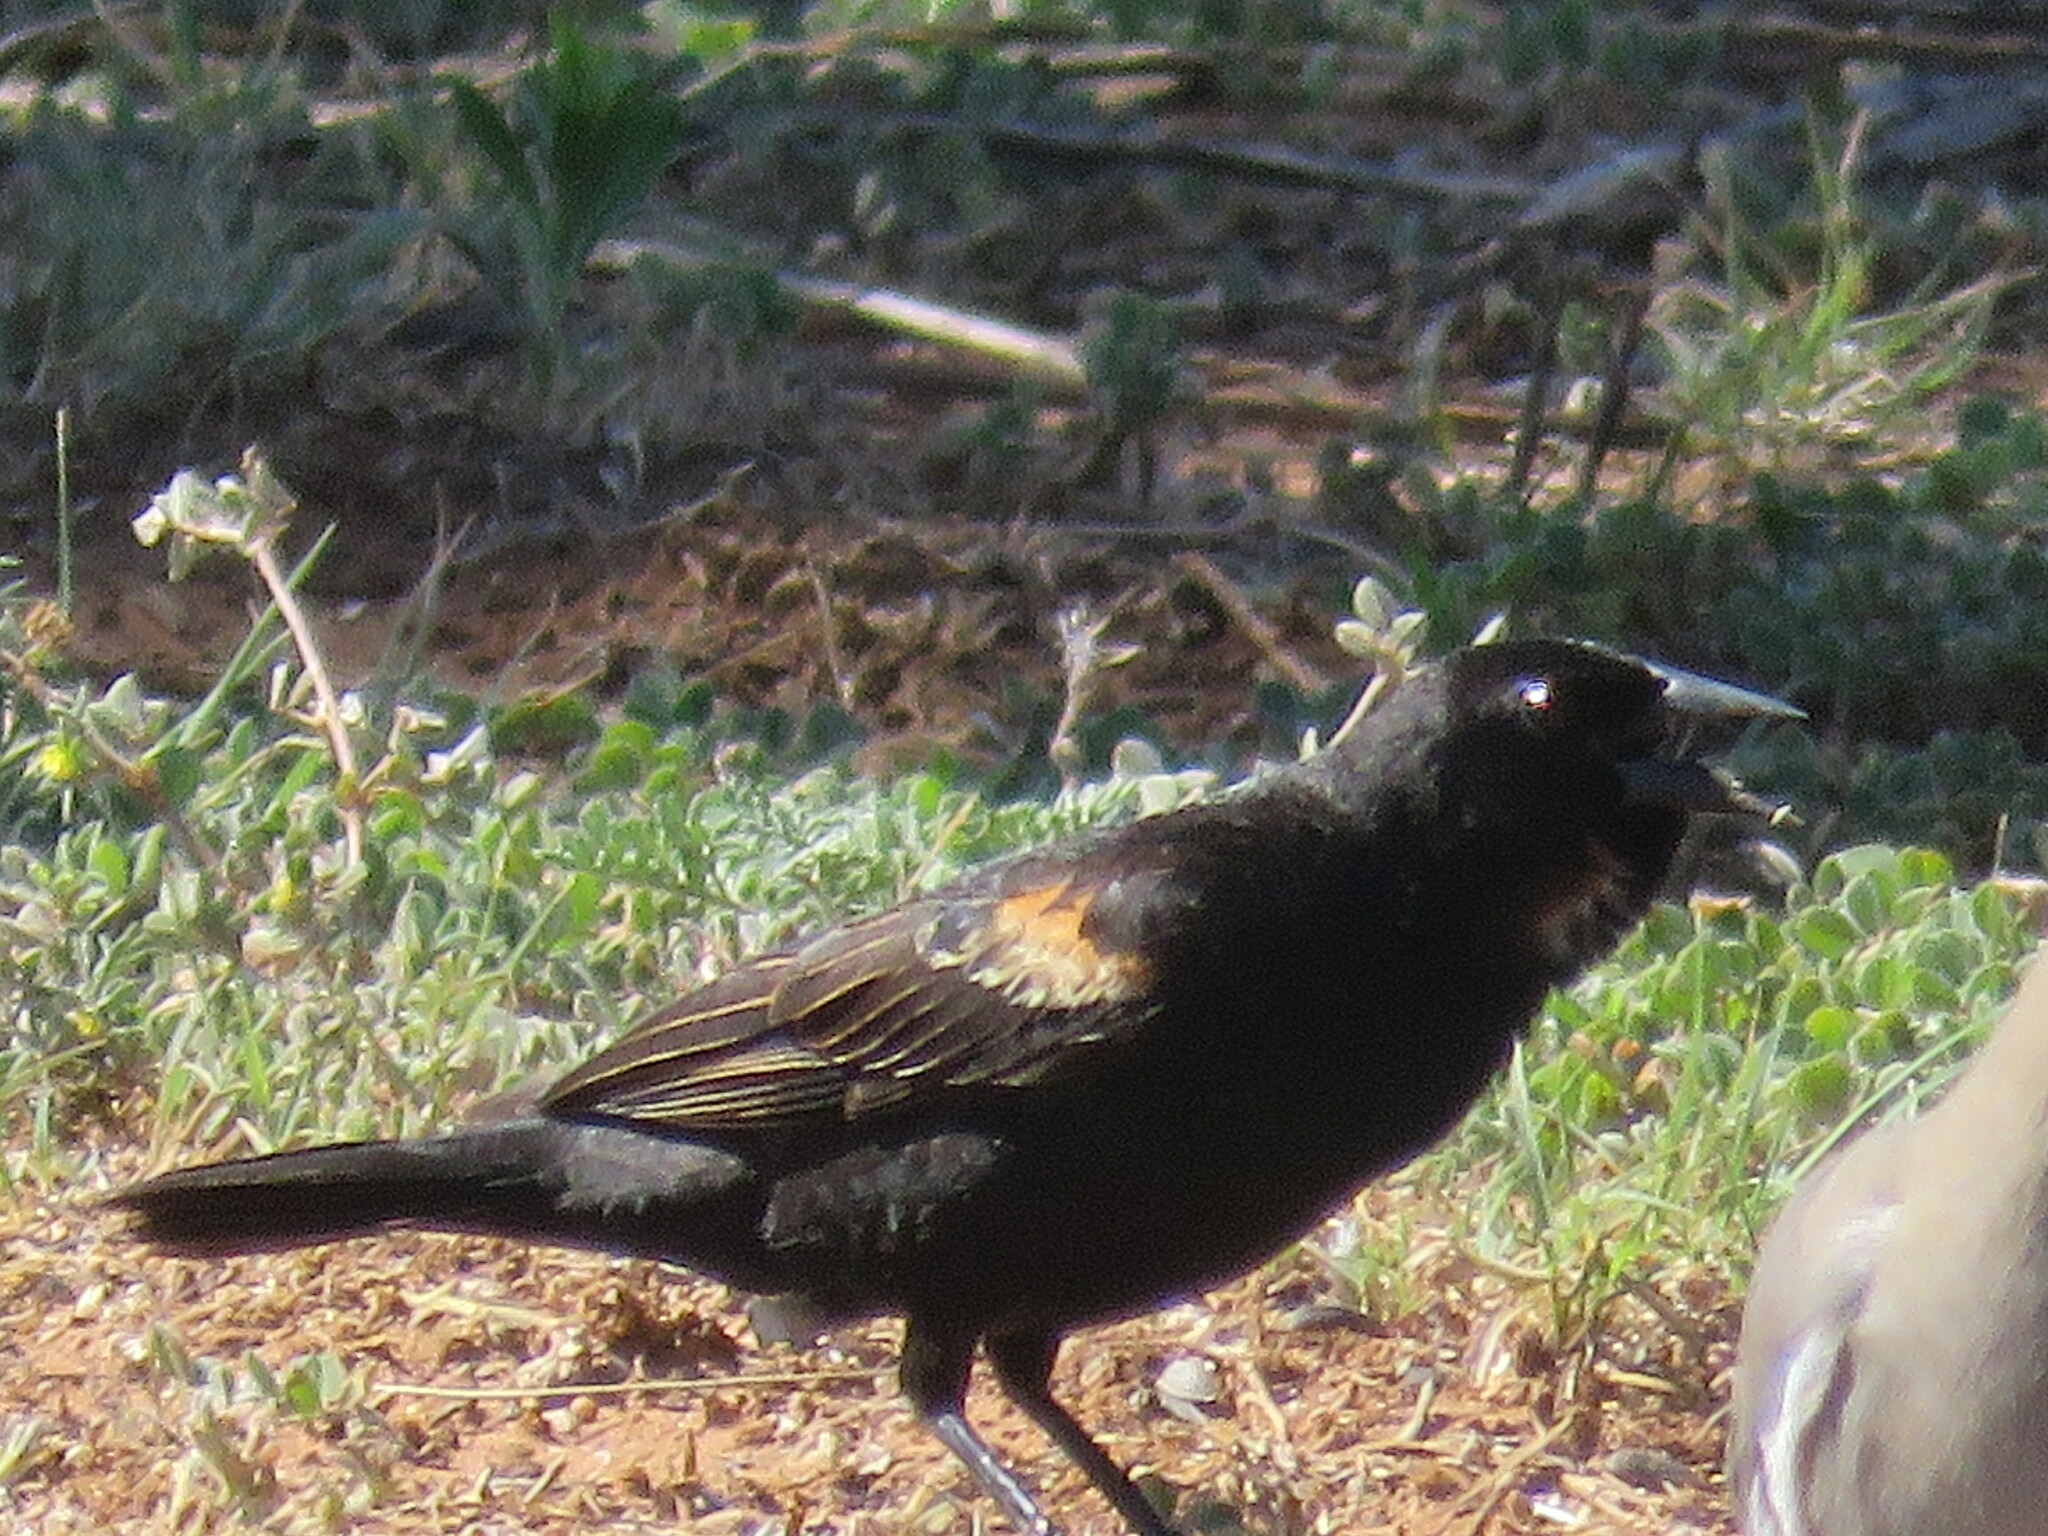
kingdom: Animalia
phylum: Chordata
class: Aves
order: Passeriformes
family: Icteridae
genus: Agelaius
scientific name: Agelaius phoeniceus
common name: Red-winged blackbird
